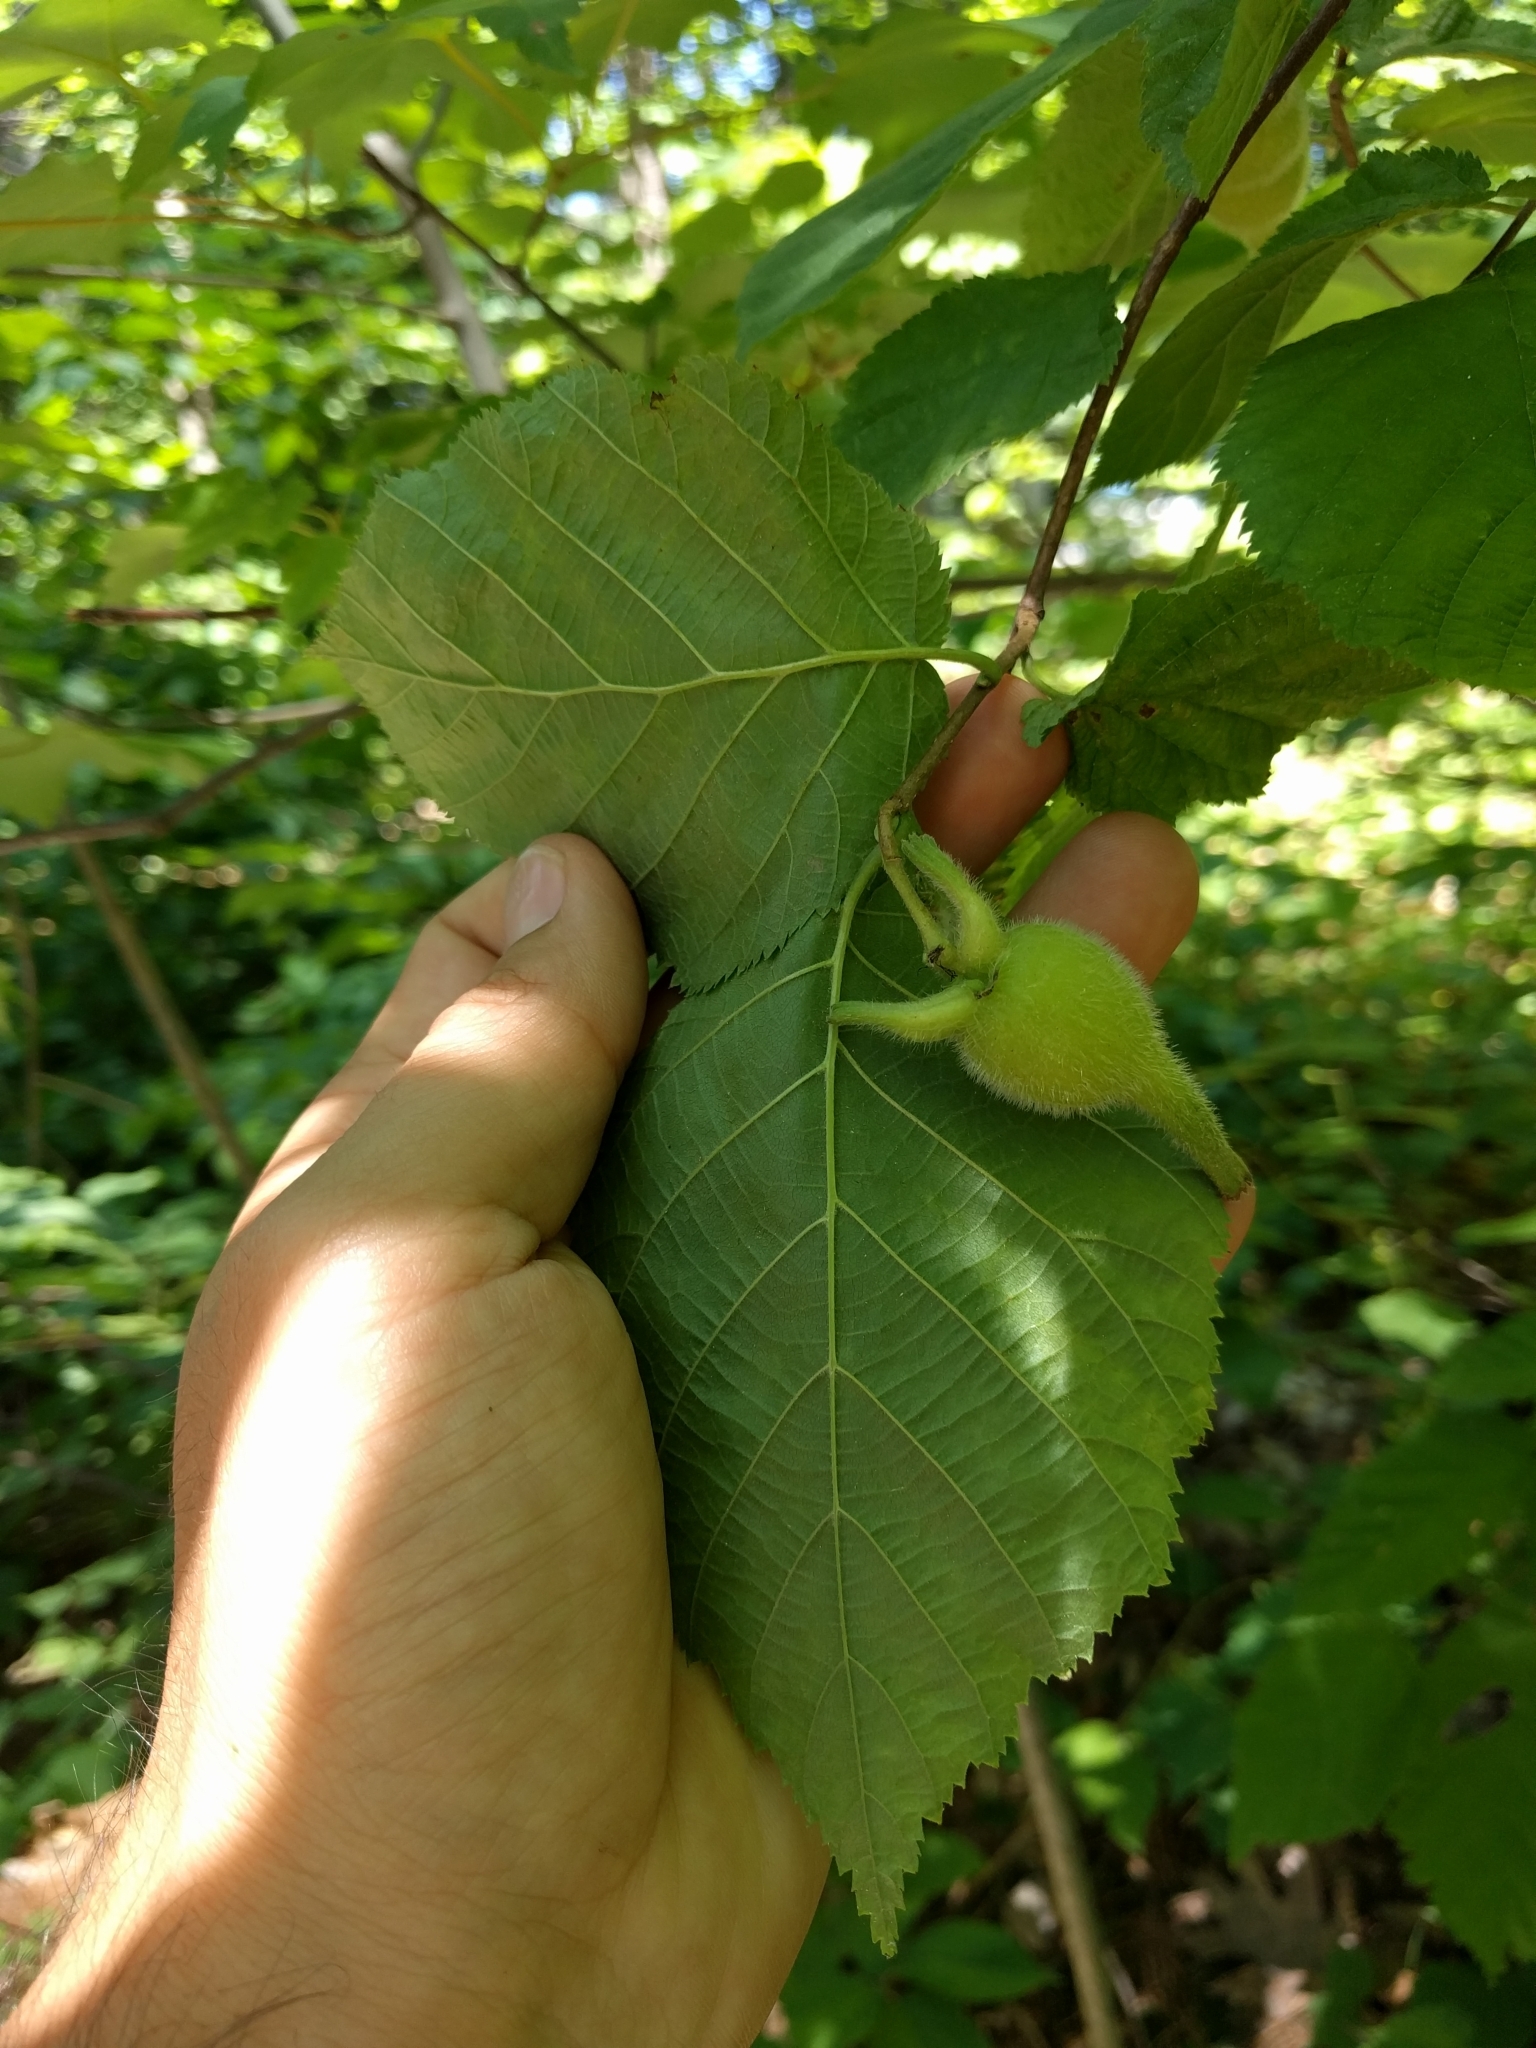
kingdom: Plantae
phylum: Tracheophyta
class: Magnoliopsida
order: Fagales
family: Betulaceae
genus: Corylus
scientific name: Corylus cornuta
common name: Beaked hazel
